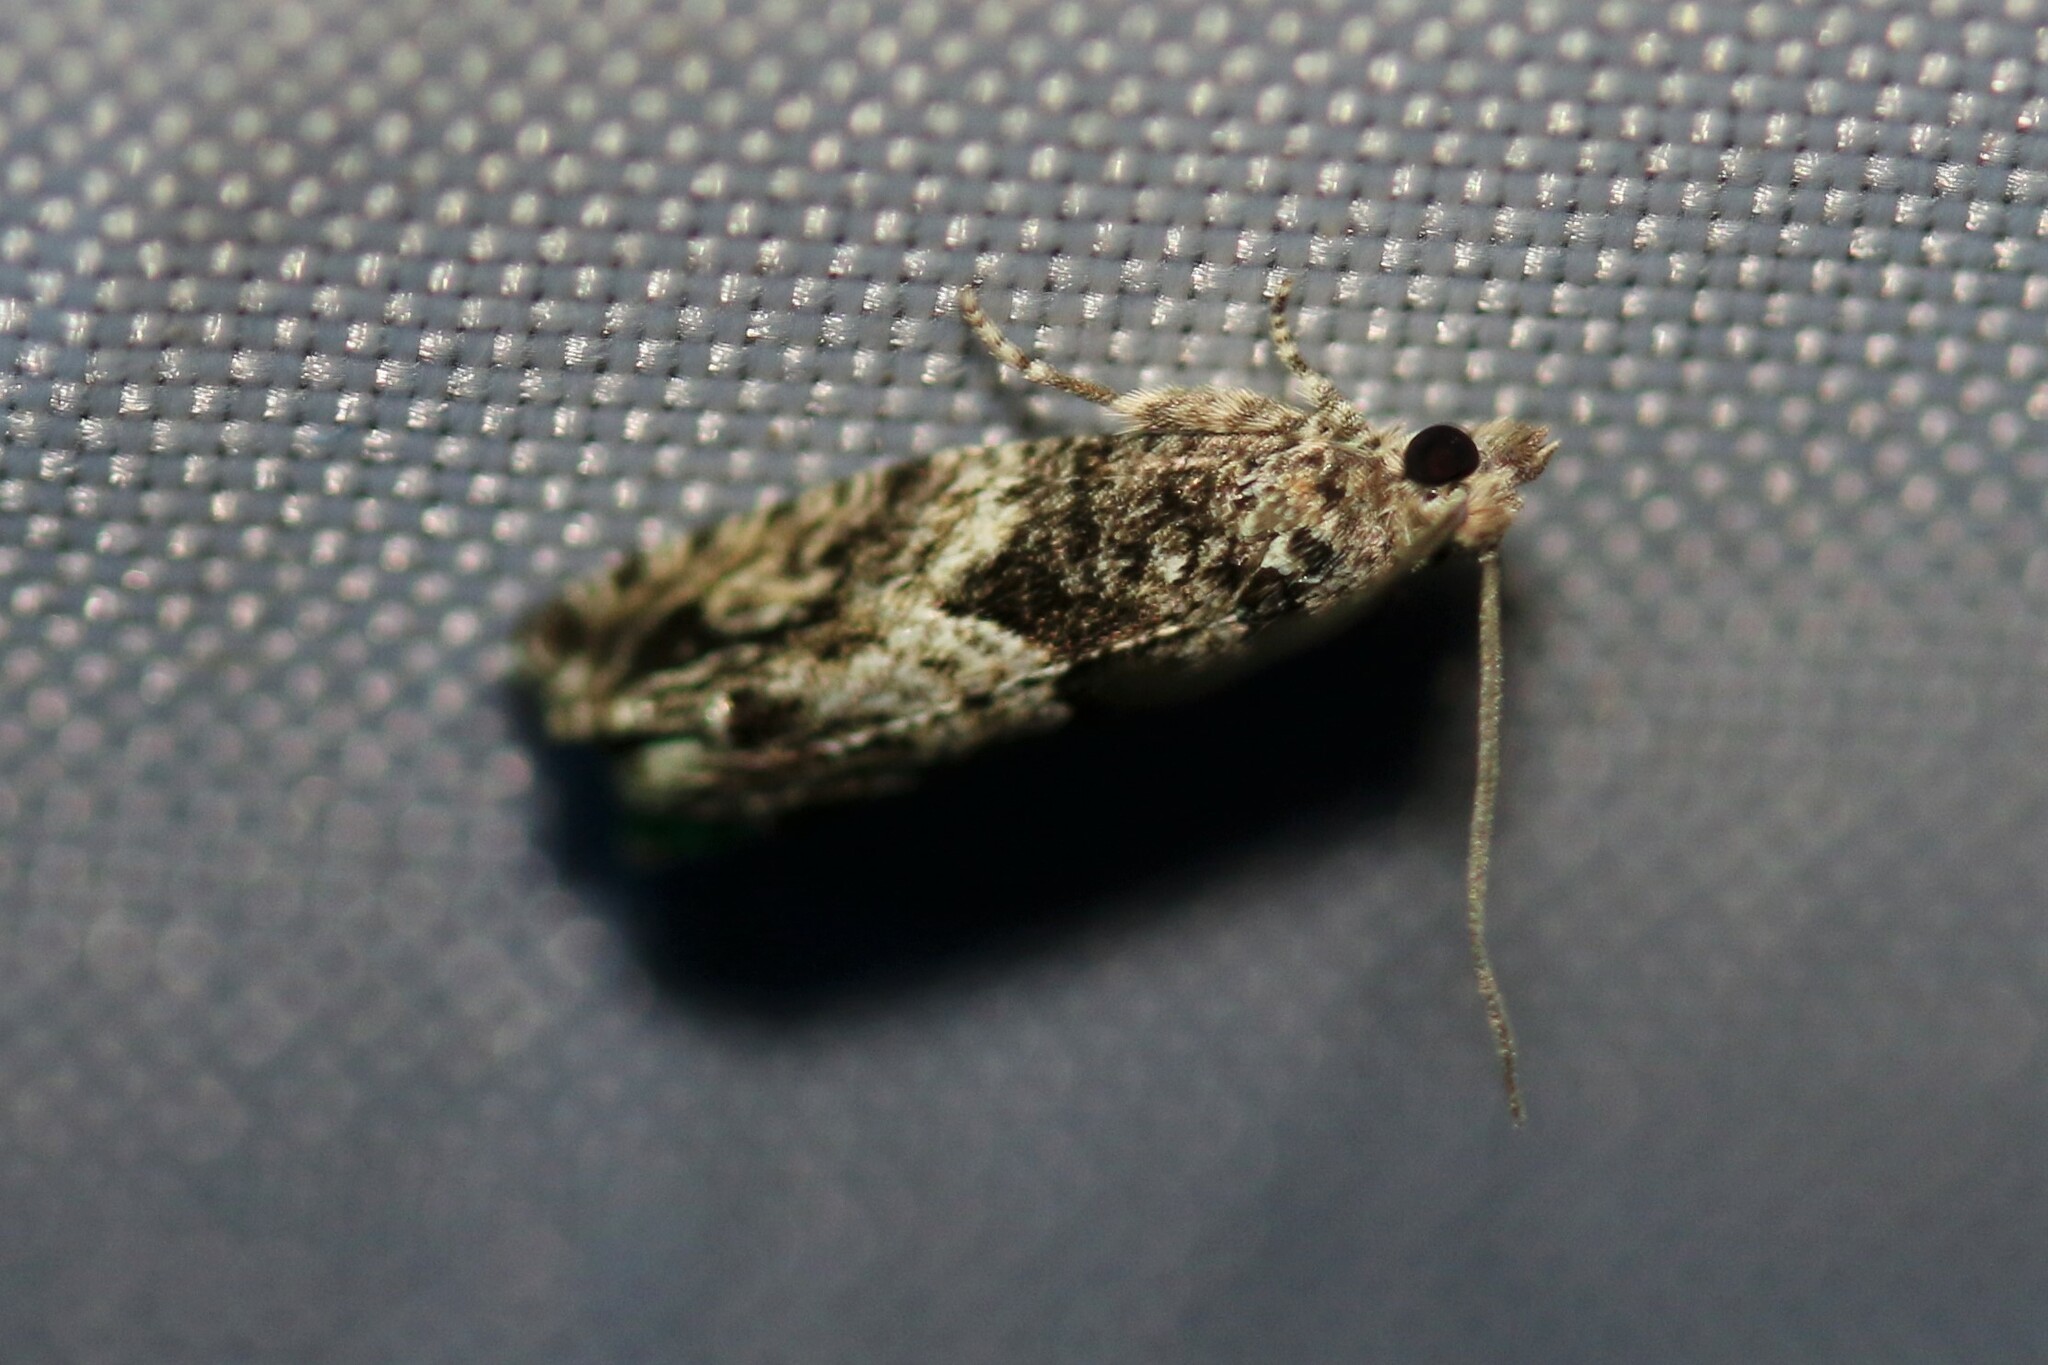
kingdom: Animalia
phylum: Arthropoda
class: Insecta
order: Lepidoptera
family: Tortricidae
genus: Cydia
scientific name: Cydia fagiglandana
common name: Large beech piercer
